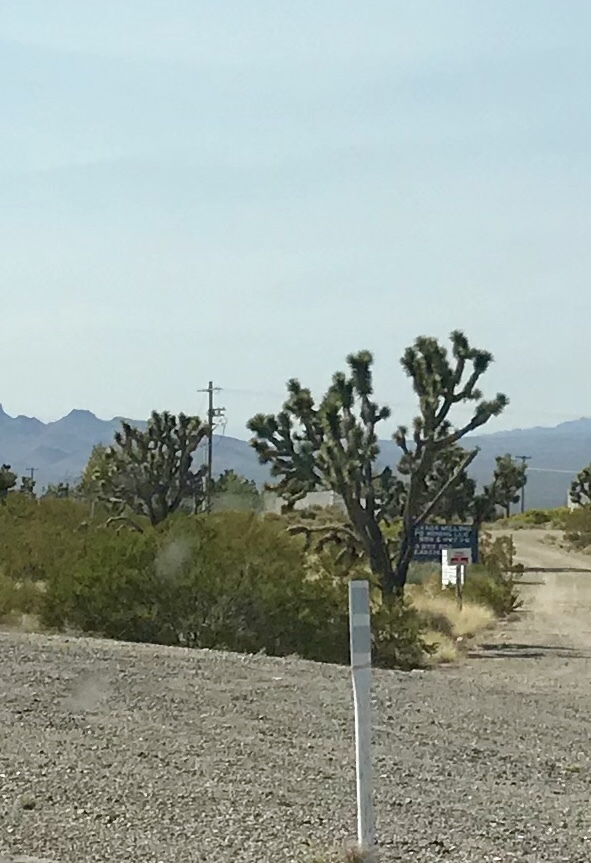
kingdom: Plantae
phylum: Tracheophyta
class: Liliopsida
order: Asparagales
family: Asparagaceae
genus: Yucca
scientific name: Yucca brevifolia
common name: Joshua tree
